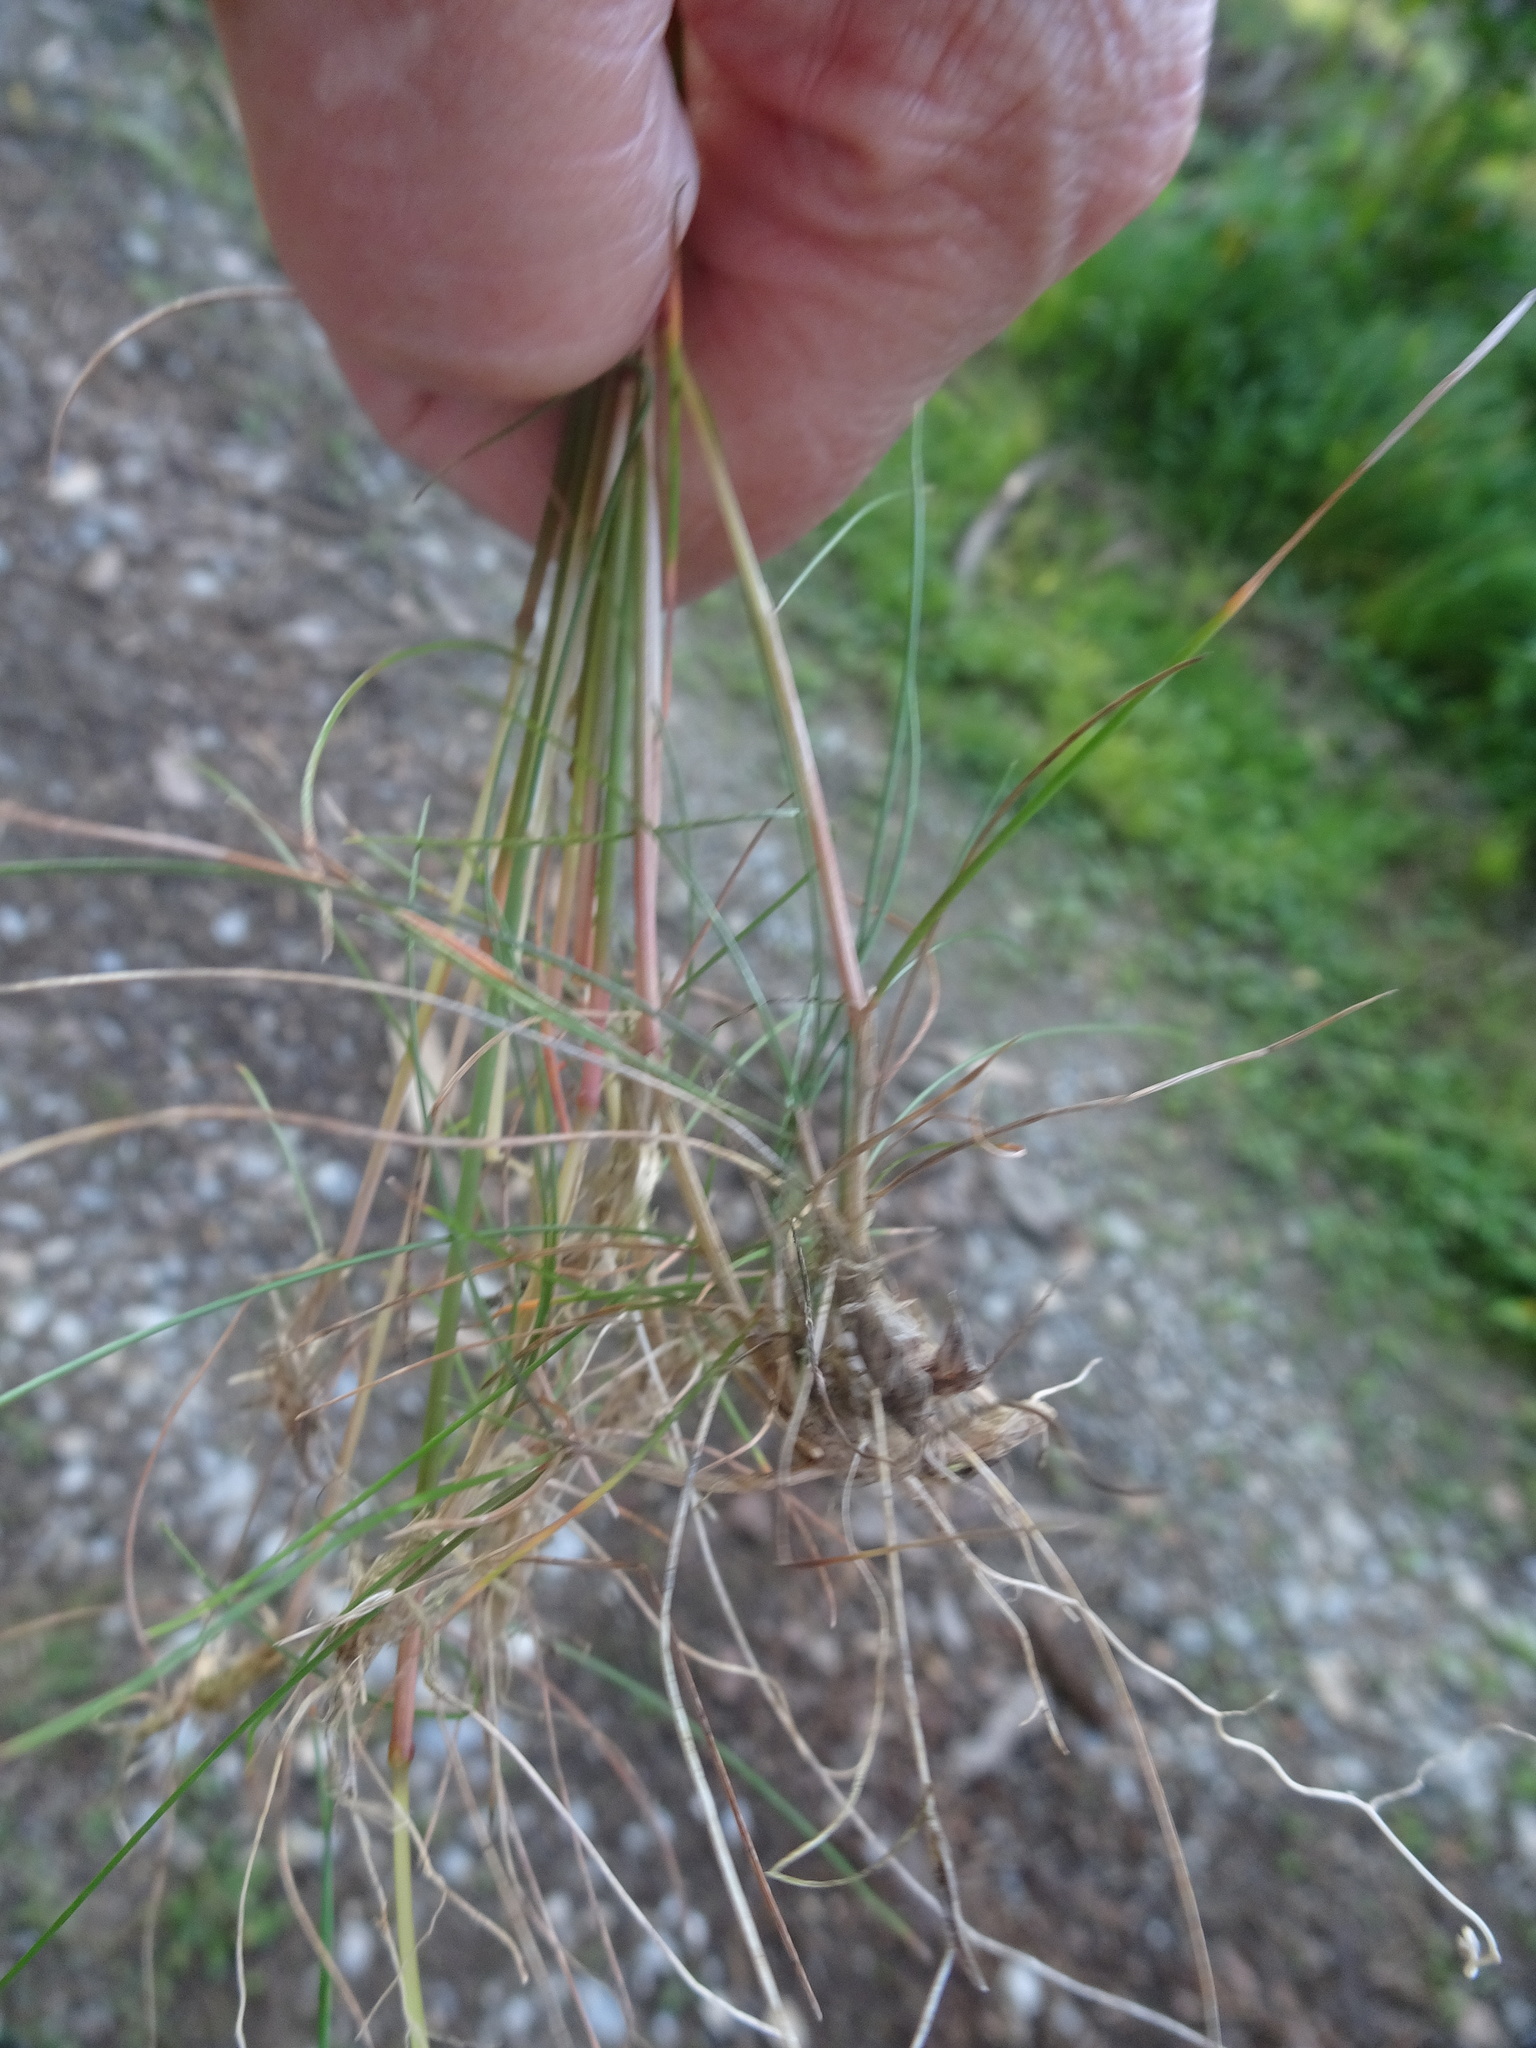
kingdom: Plantae
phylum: Tracheophyta
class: Liliopsida
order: Poales
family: Poaceae
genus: Avenella
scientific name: Avenella flexuosa
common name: Wavy hairgrass
